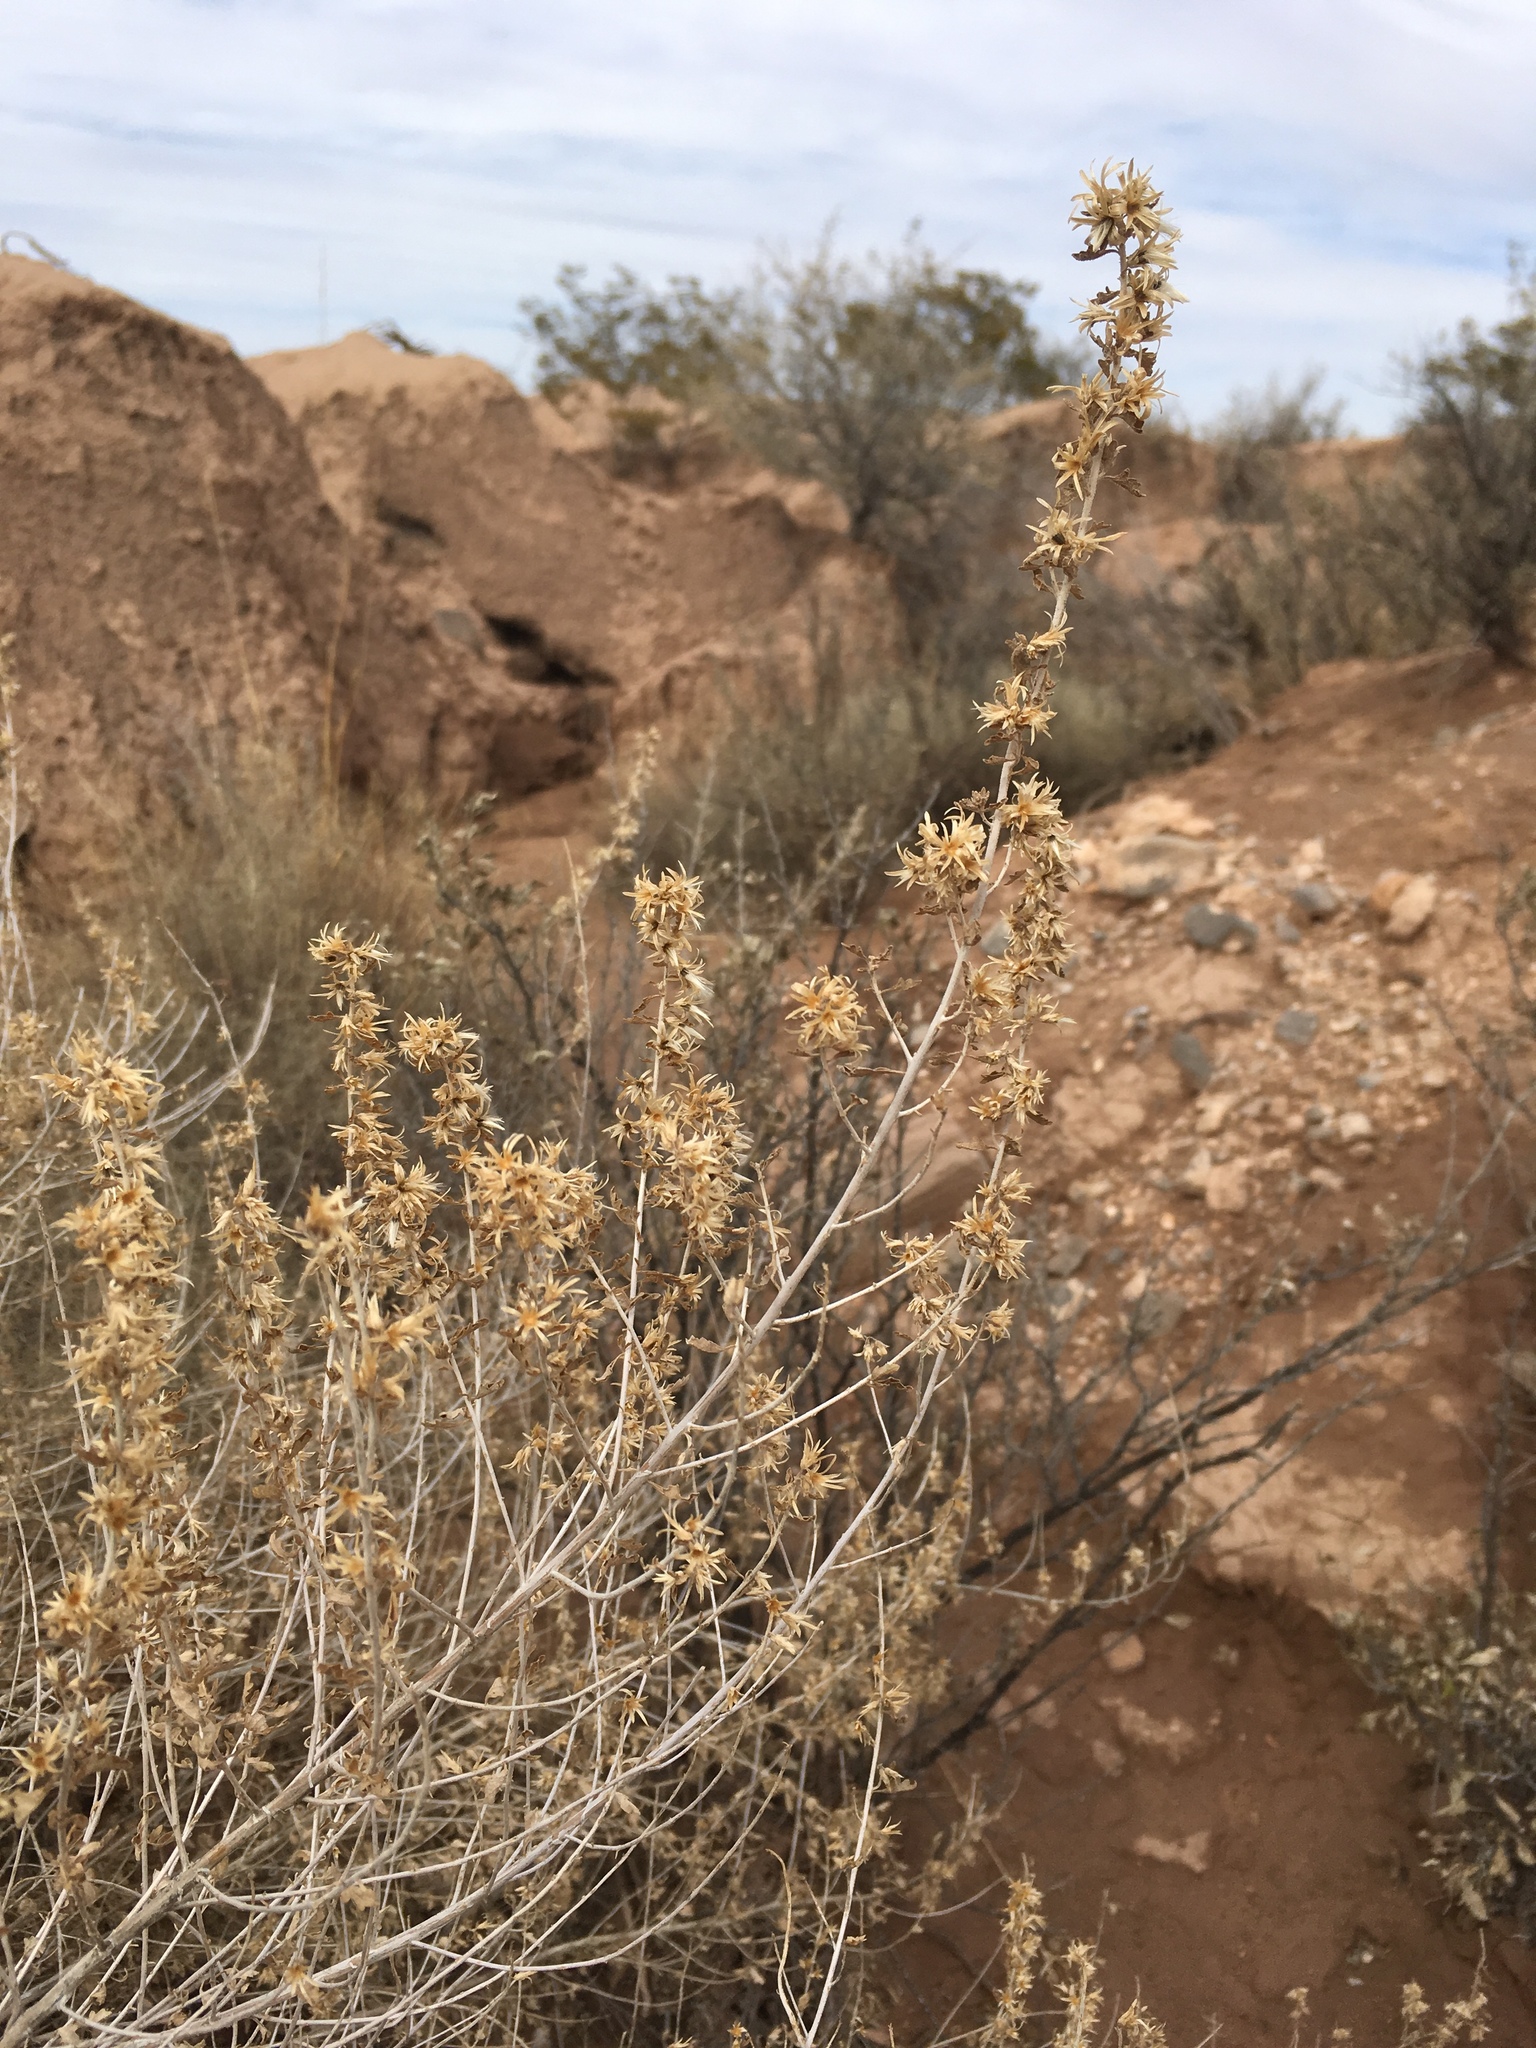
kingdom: Plantae
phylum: Tracheophyta
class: Magnoliopsida
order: Asterales
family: Asteraceae
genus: Brickellia
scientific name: Brickellia laciniata
